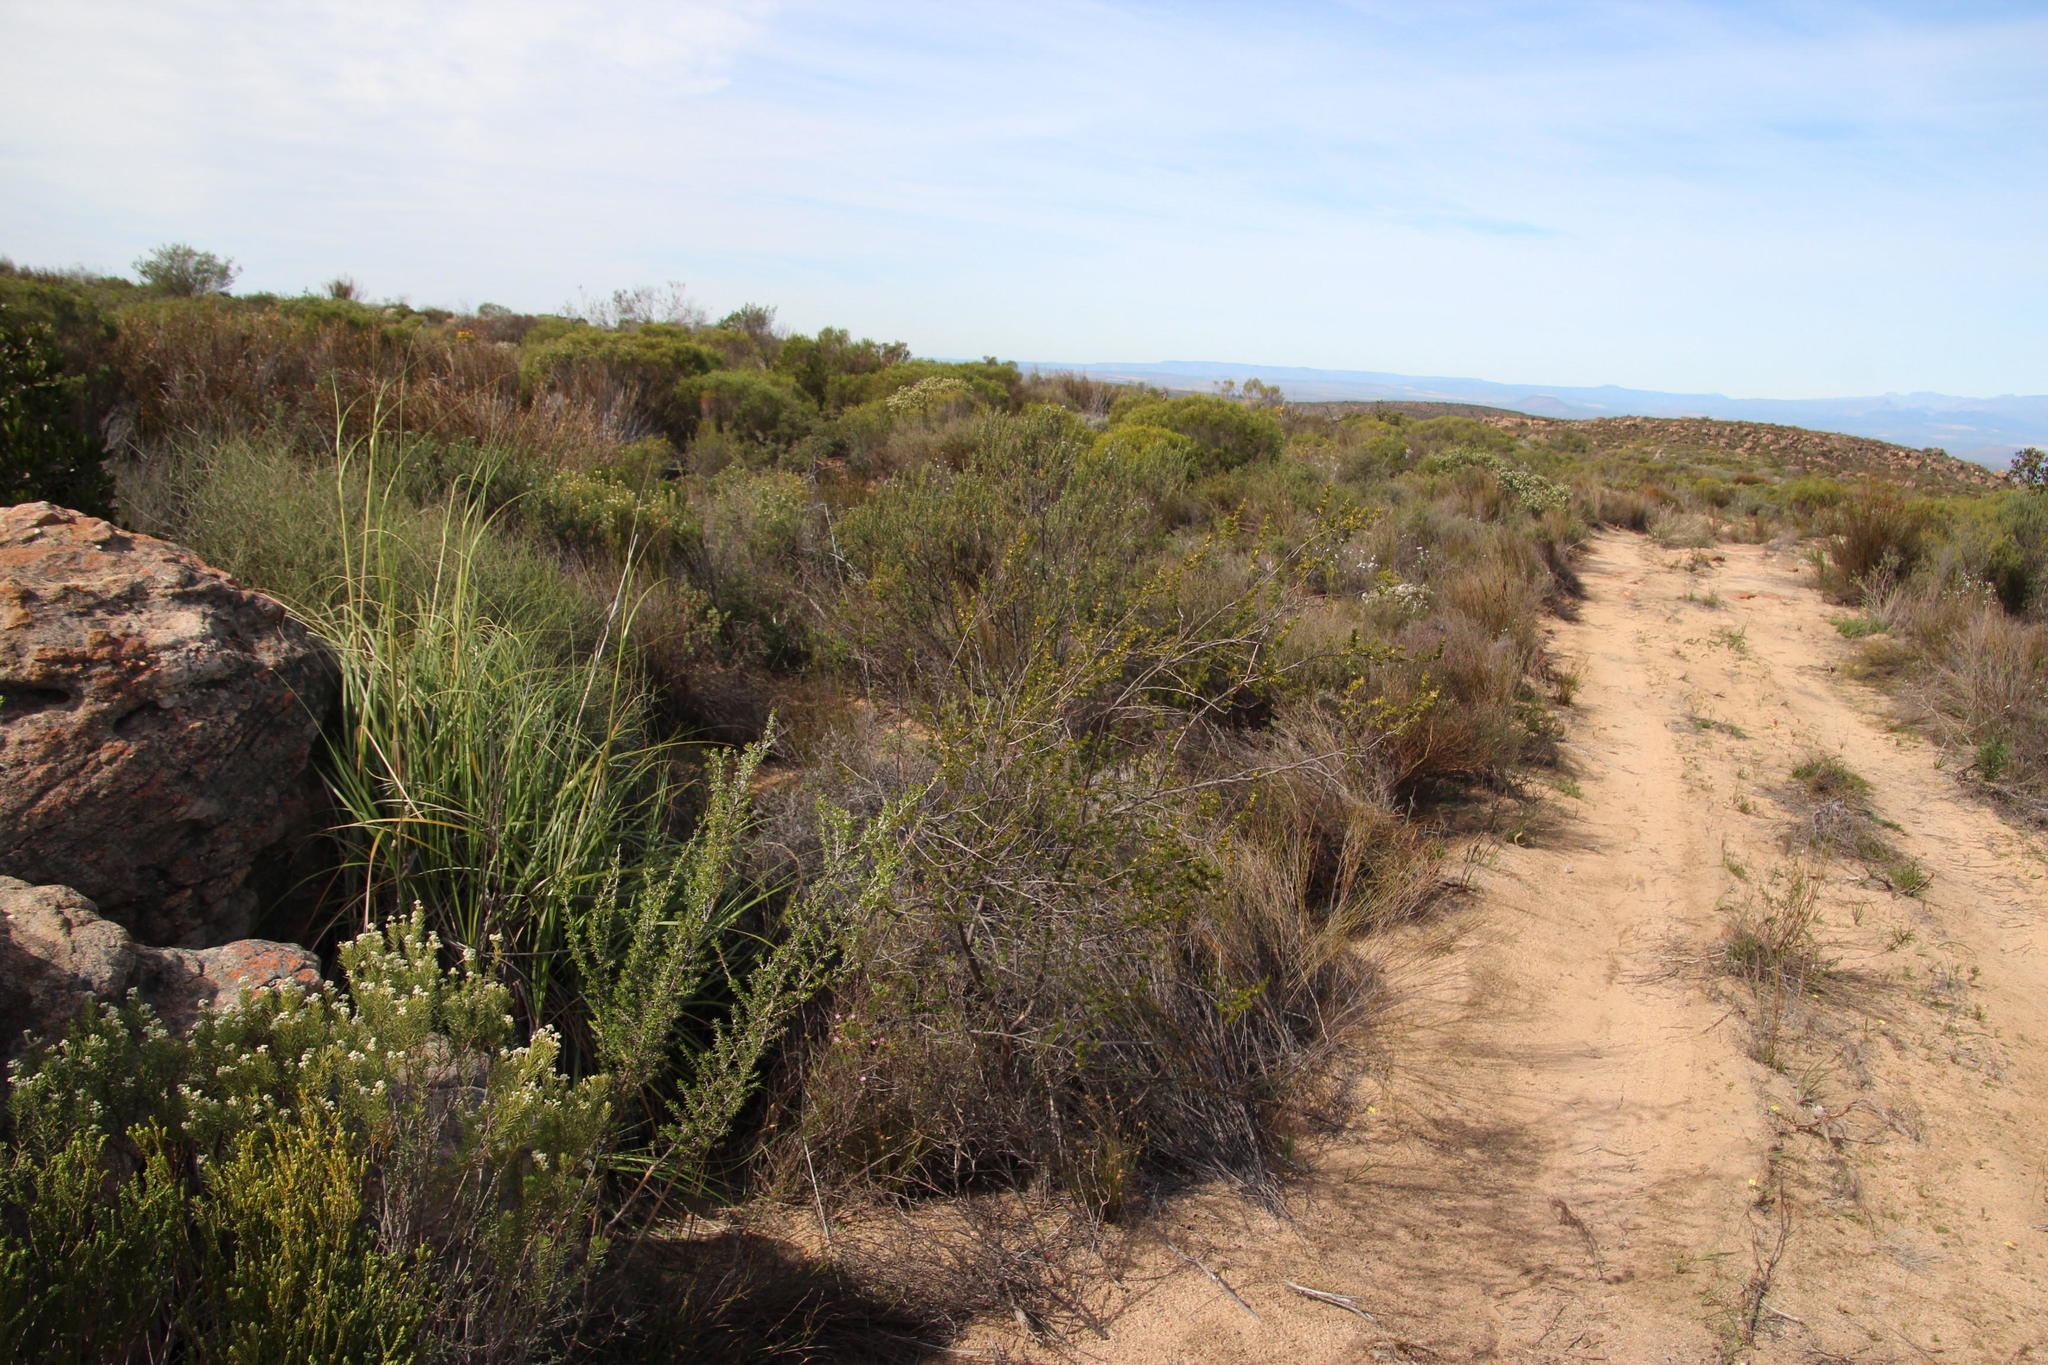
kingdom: Plantae
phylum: Tracheophyta
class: Magnoliopsida
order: Rosales
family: Rosaceae
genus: Cliffortia
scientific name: Cliffortia teretifolia
